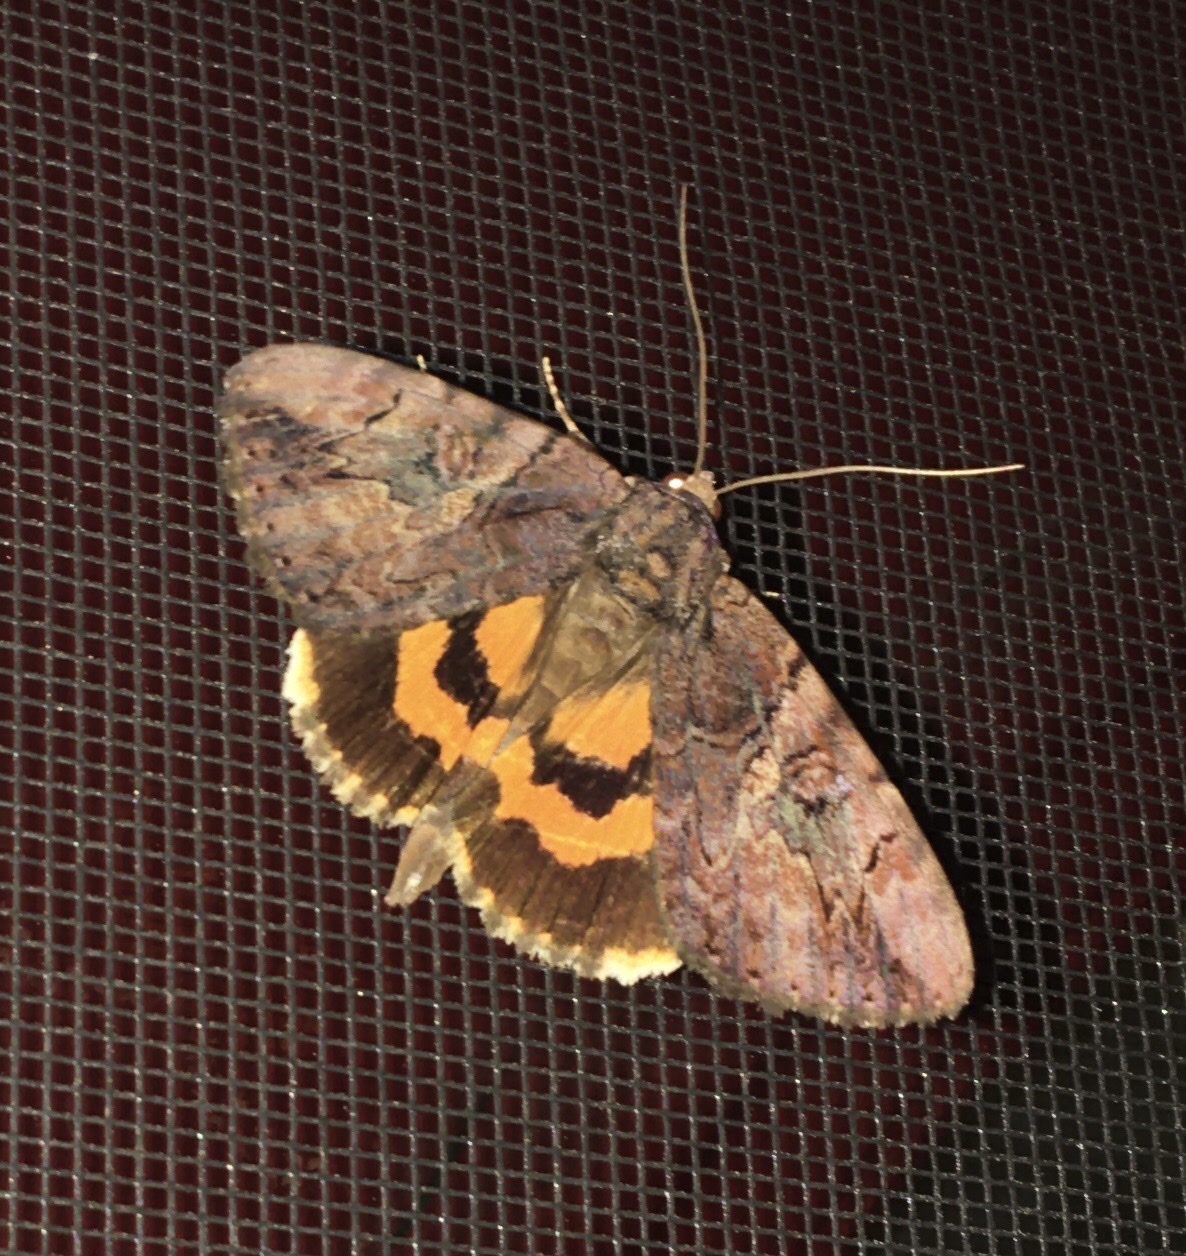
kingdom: Animalia
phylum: Arthropoda
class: Insecta
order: Lepidoptera
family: Erebidae
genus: Catocala
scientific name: Catocala muliercula
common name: The little wife underwing
